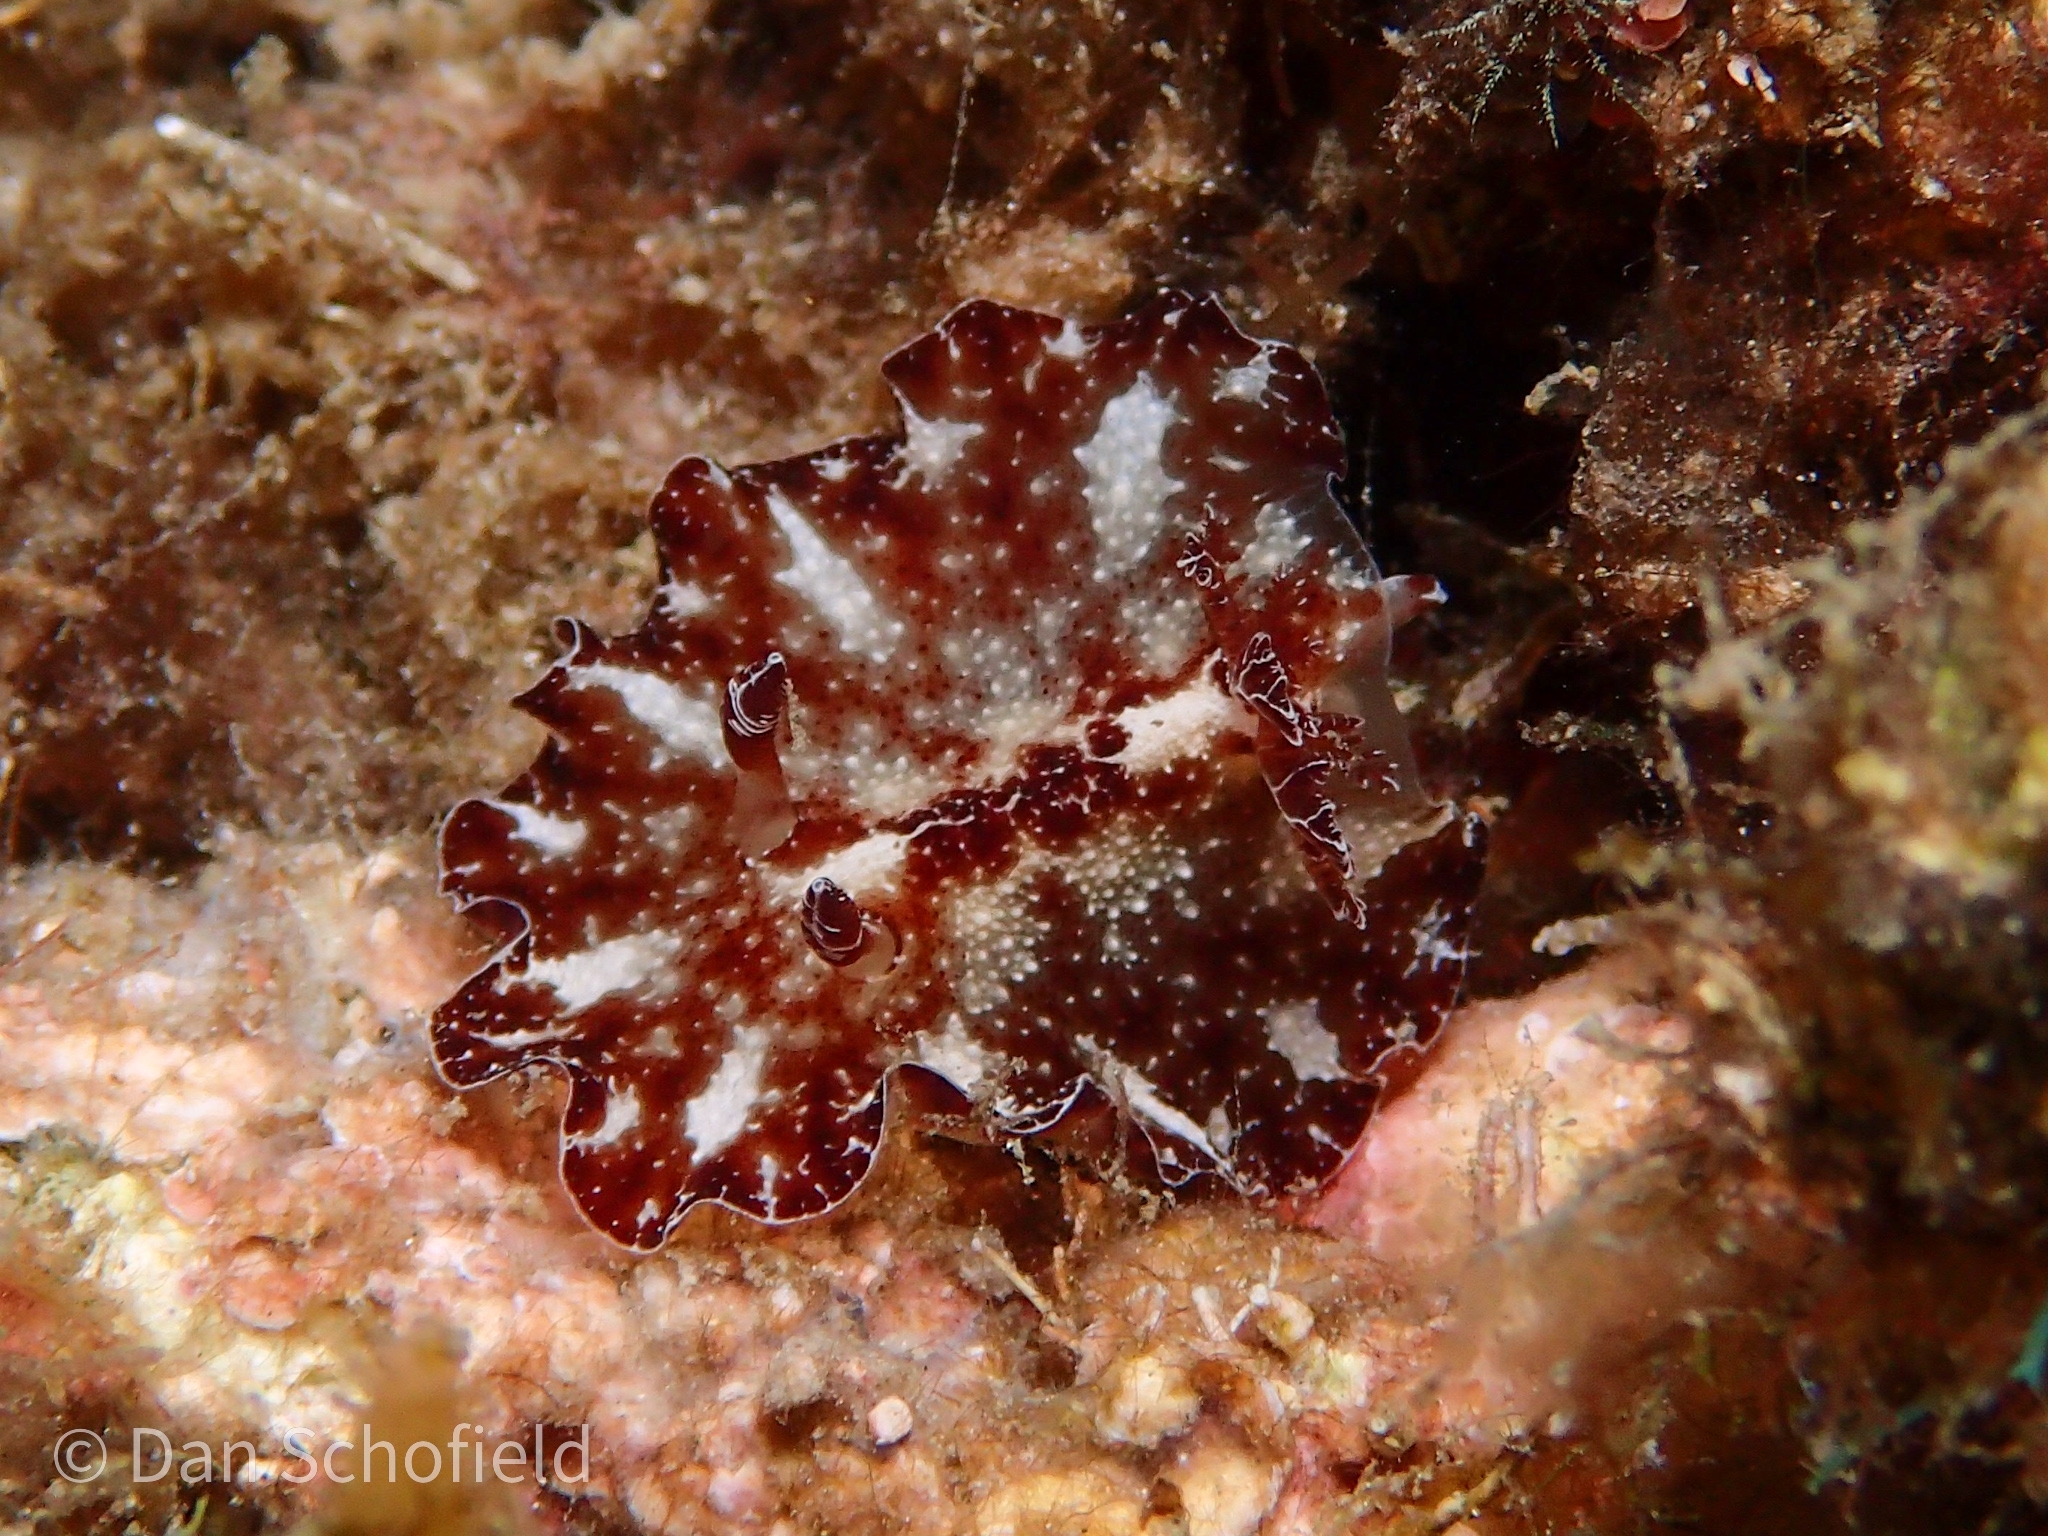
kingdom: Animalia
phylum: Mollusca
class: Gastropoda
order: Nudibranchia
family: Discodorididae
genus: Discodoris
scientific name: Discodoris boholiensis
